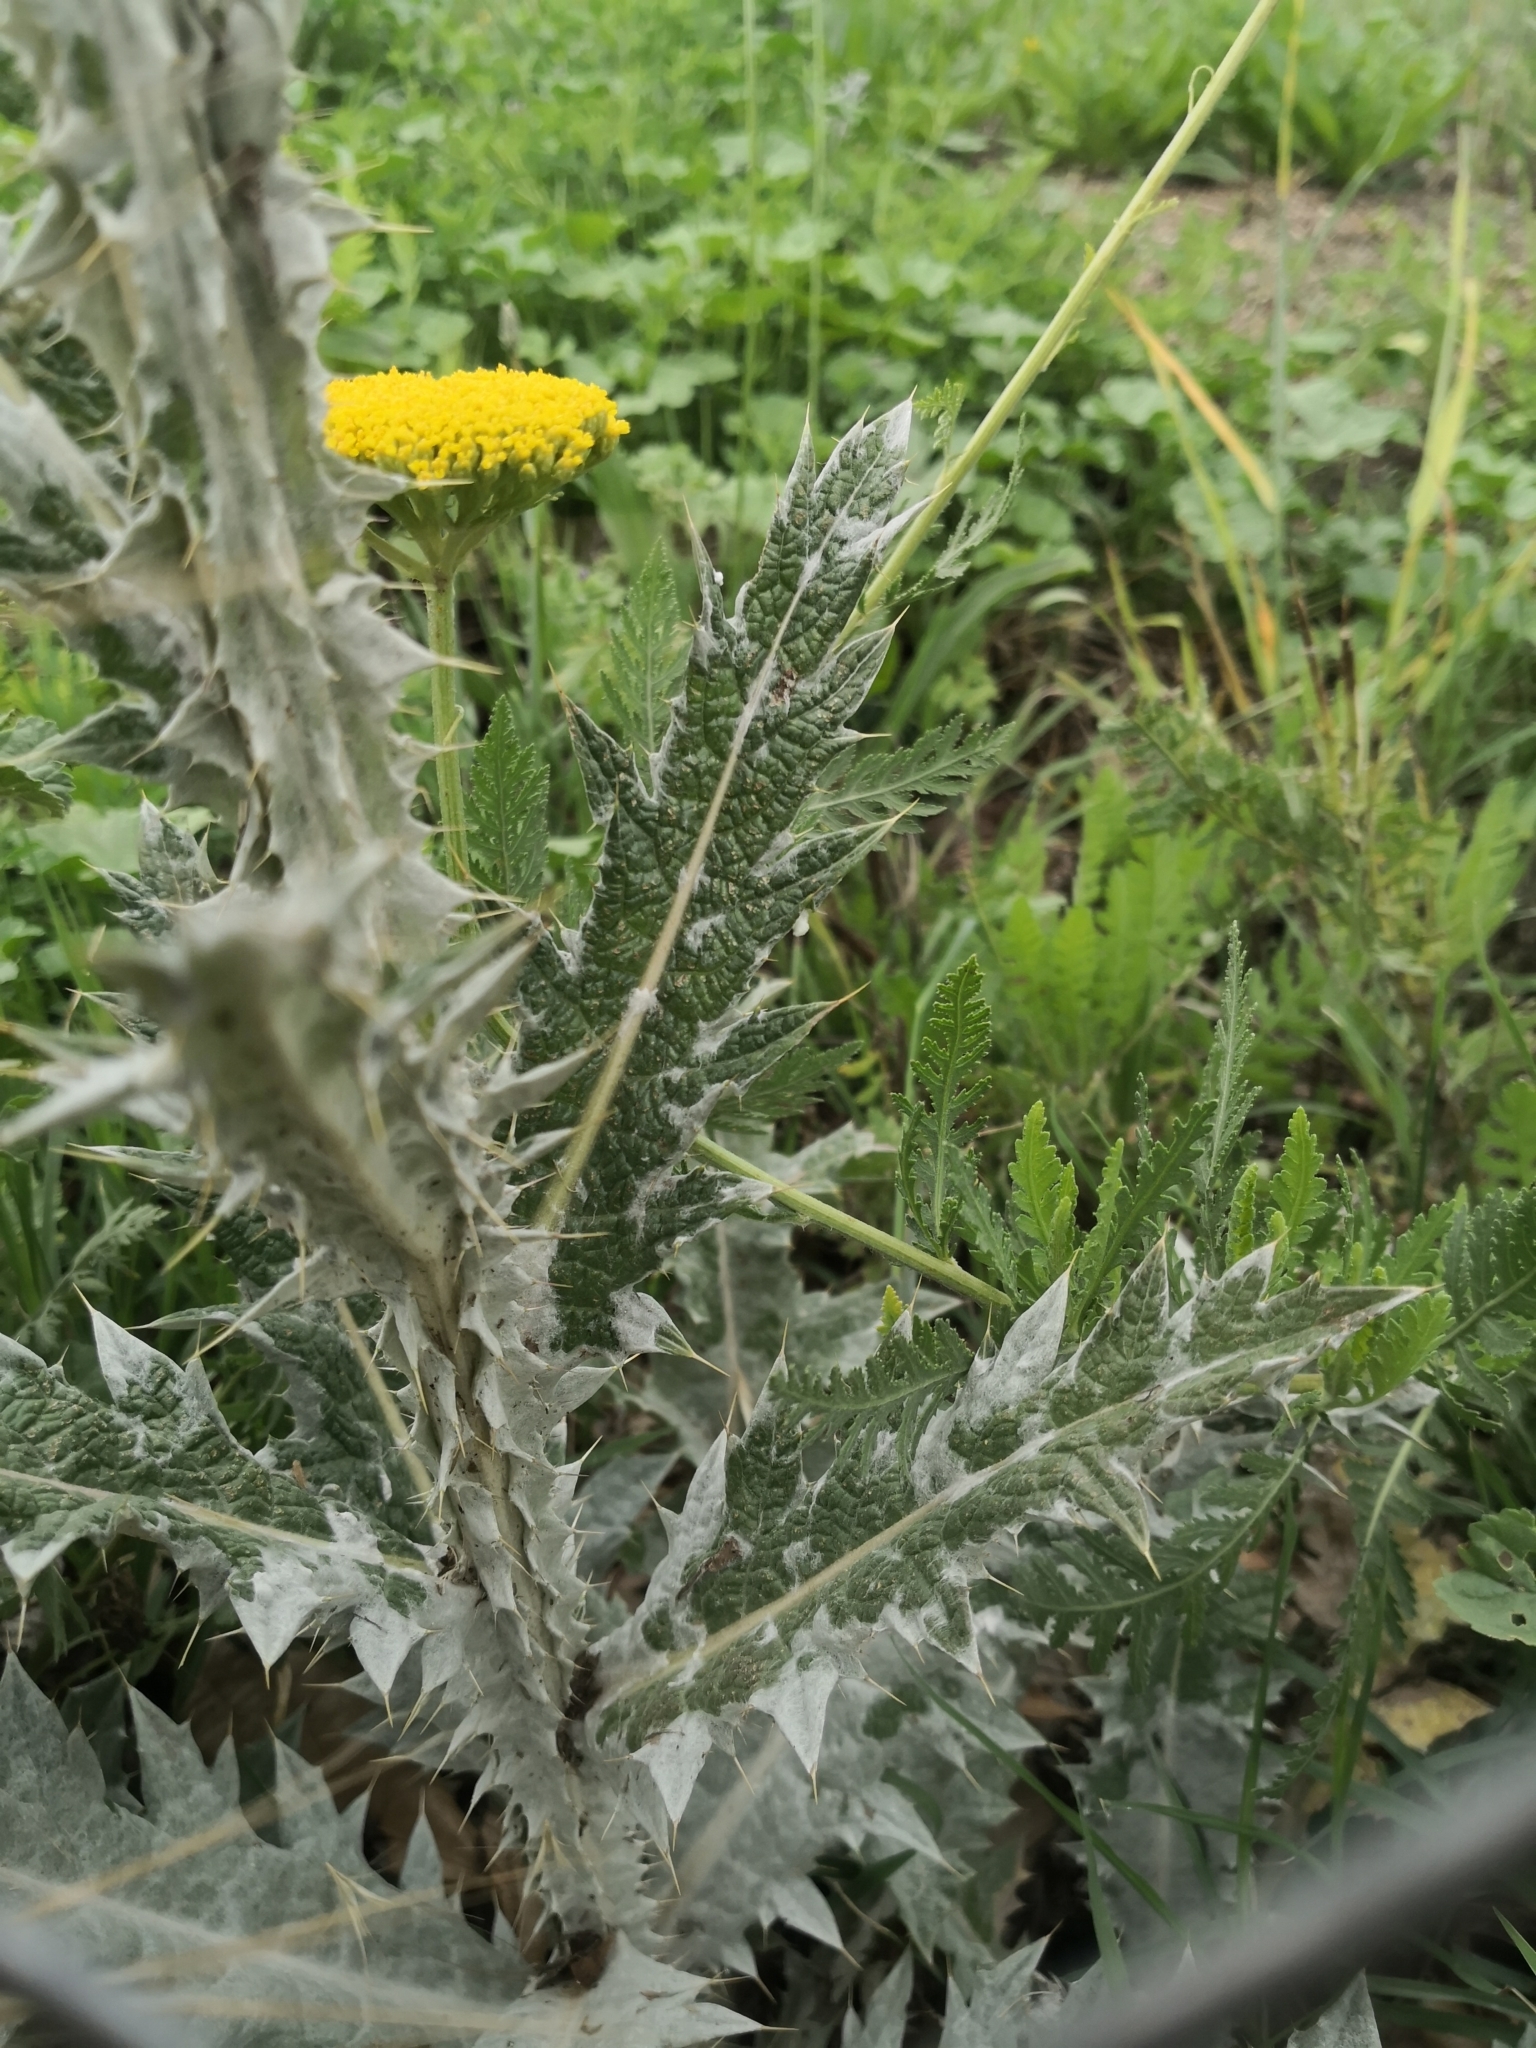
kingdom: Plantae
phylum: Tracheophyta
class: Magnoliopsida
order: Asterales
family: Asteraceae
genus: Onopordum
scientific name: Onopordum illyricum
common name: Illyrian thistle
